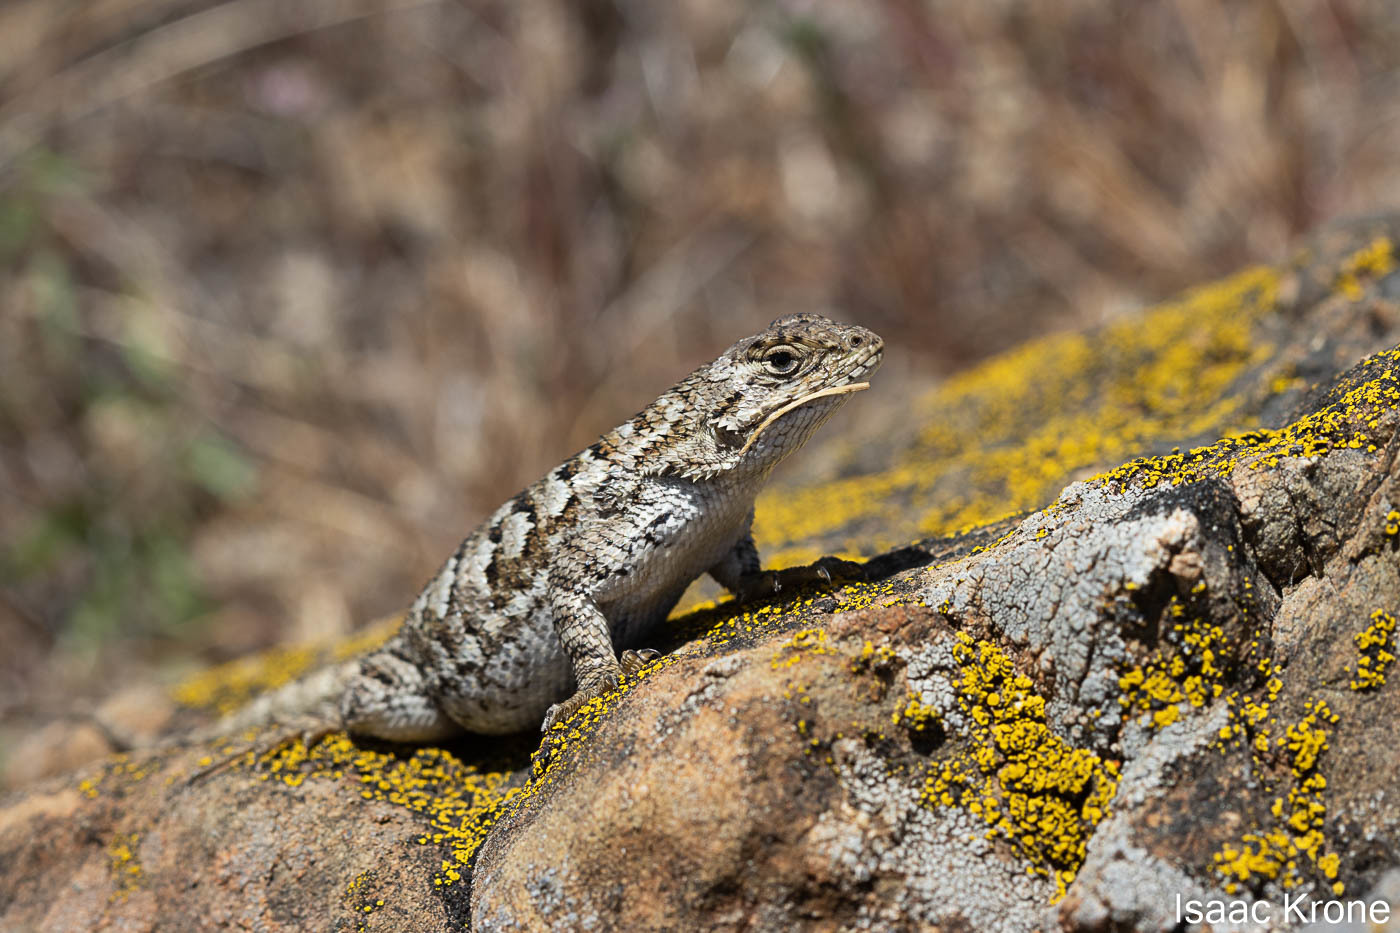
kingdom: Animalia
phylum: Chordata
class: Squamata
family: Phrynosomatidae
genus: Sceloporus
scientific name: Sceloporus occidentalis
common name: Western fence lizard
